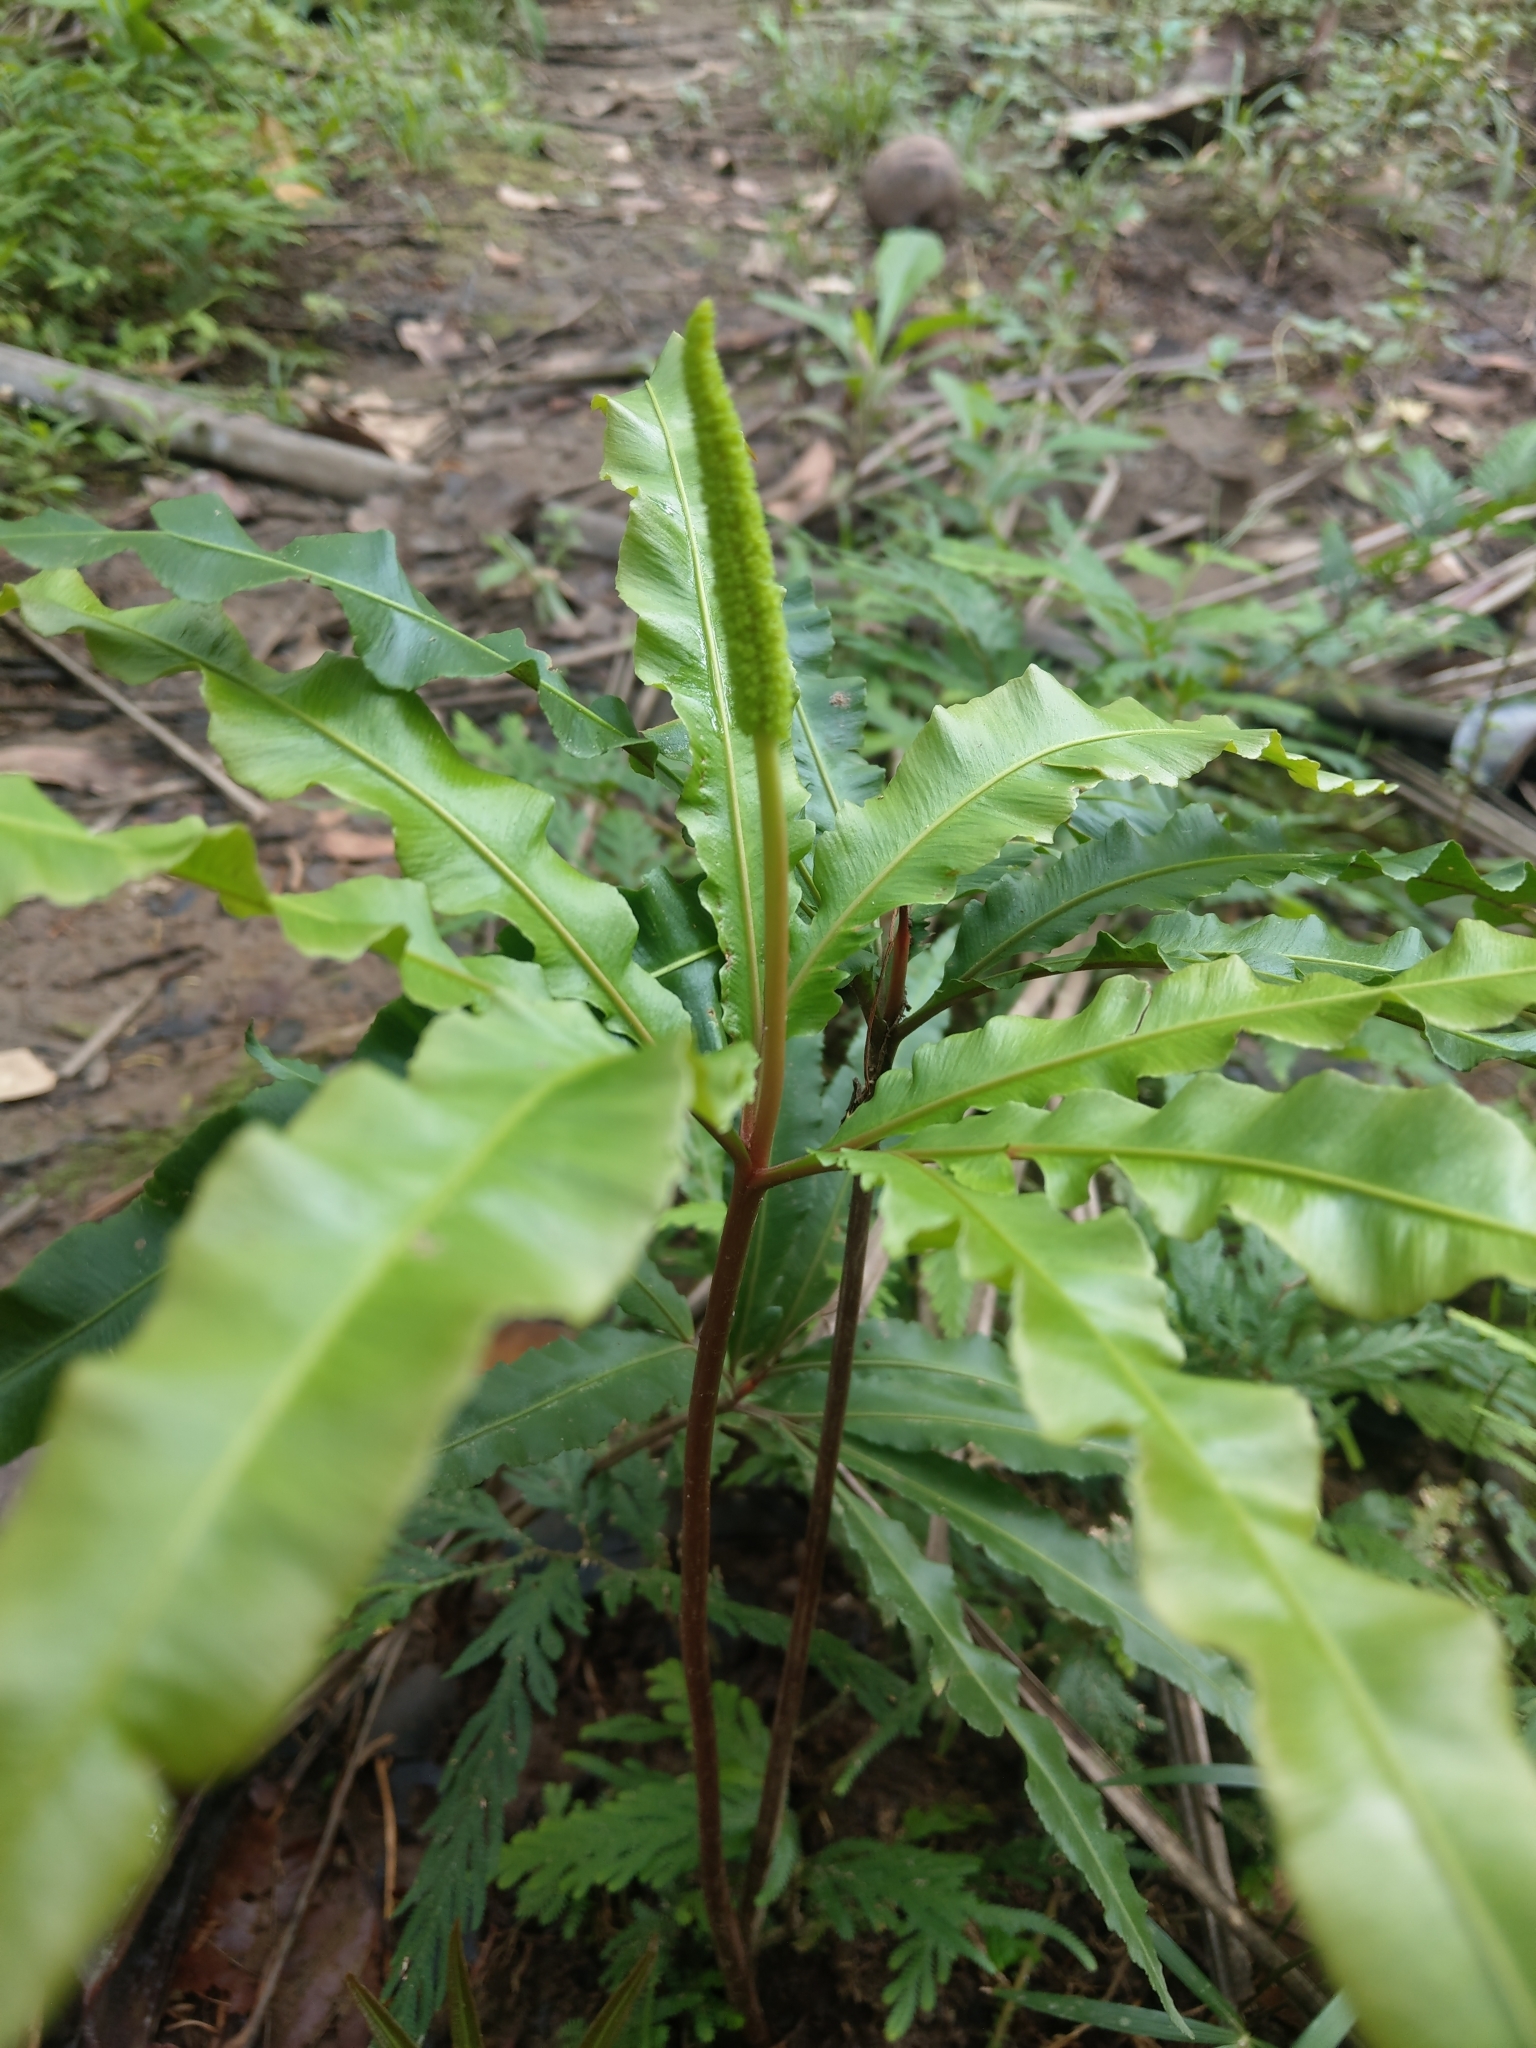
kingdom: Plantae
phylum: Tracheophyta
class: Polypodiopsida
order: Ophioglossales
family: Ophioglossaceae
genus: Helminthostachys
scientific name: Helminthostachys zeylanica
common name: Flowering fern
